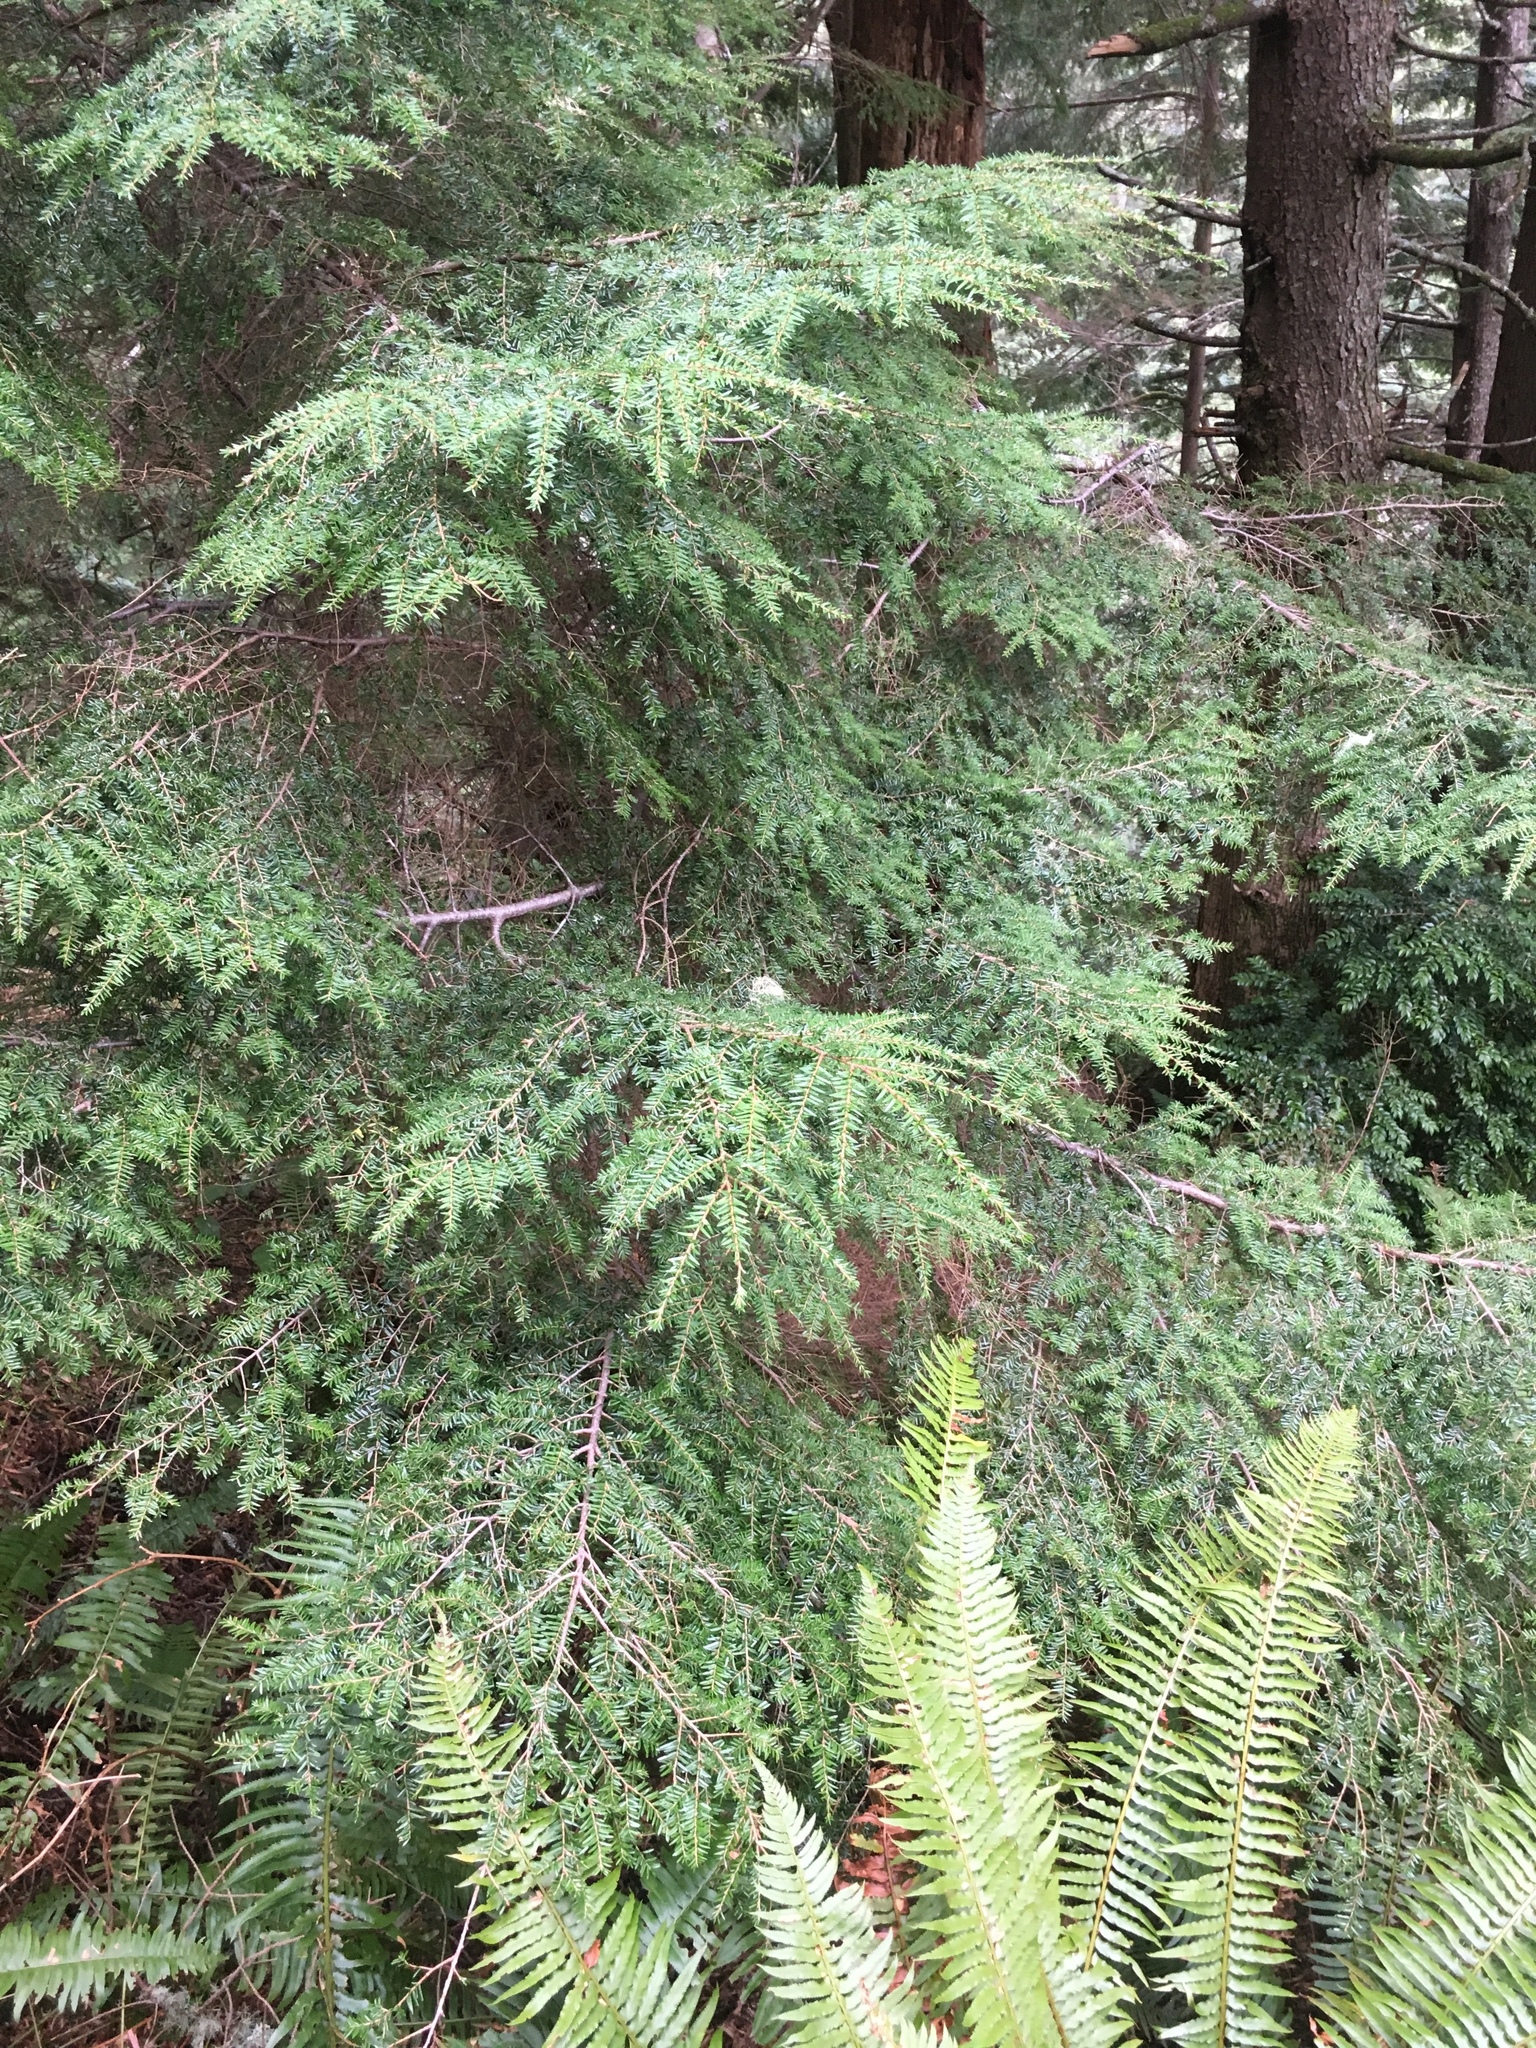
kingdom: Plantae
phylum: Tracheophyta
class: Pinopsida
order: Pinales
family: Pinaceae
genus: Tsuga
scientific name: Tsuga heterophylla
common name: Western hemlock
